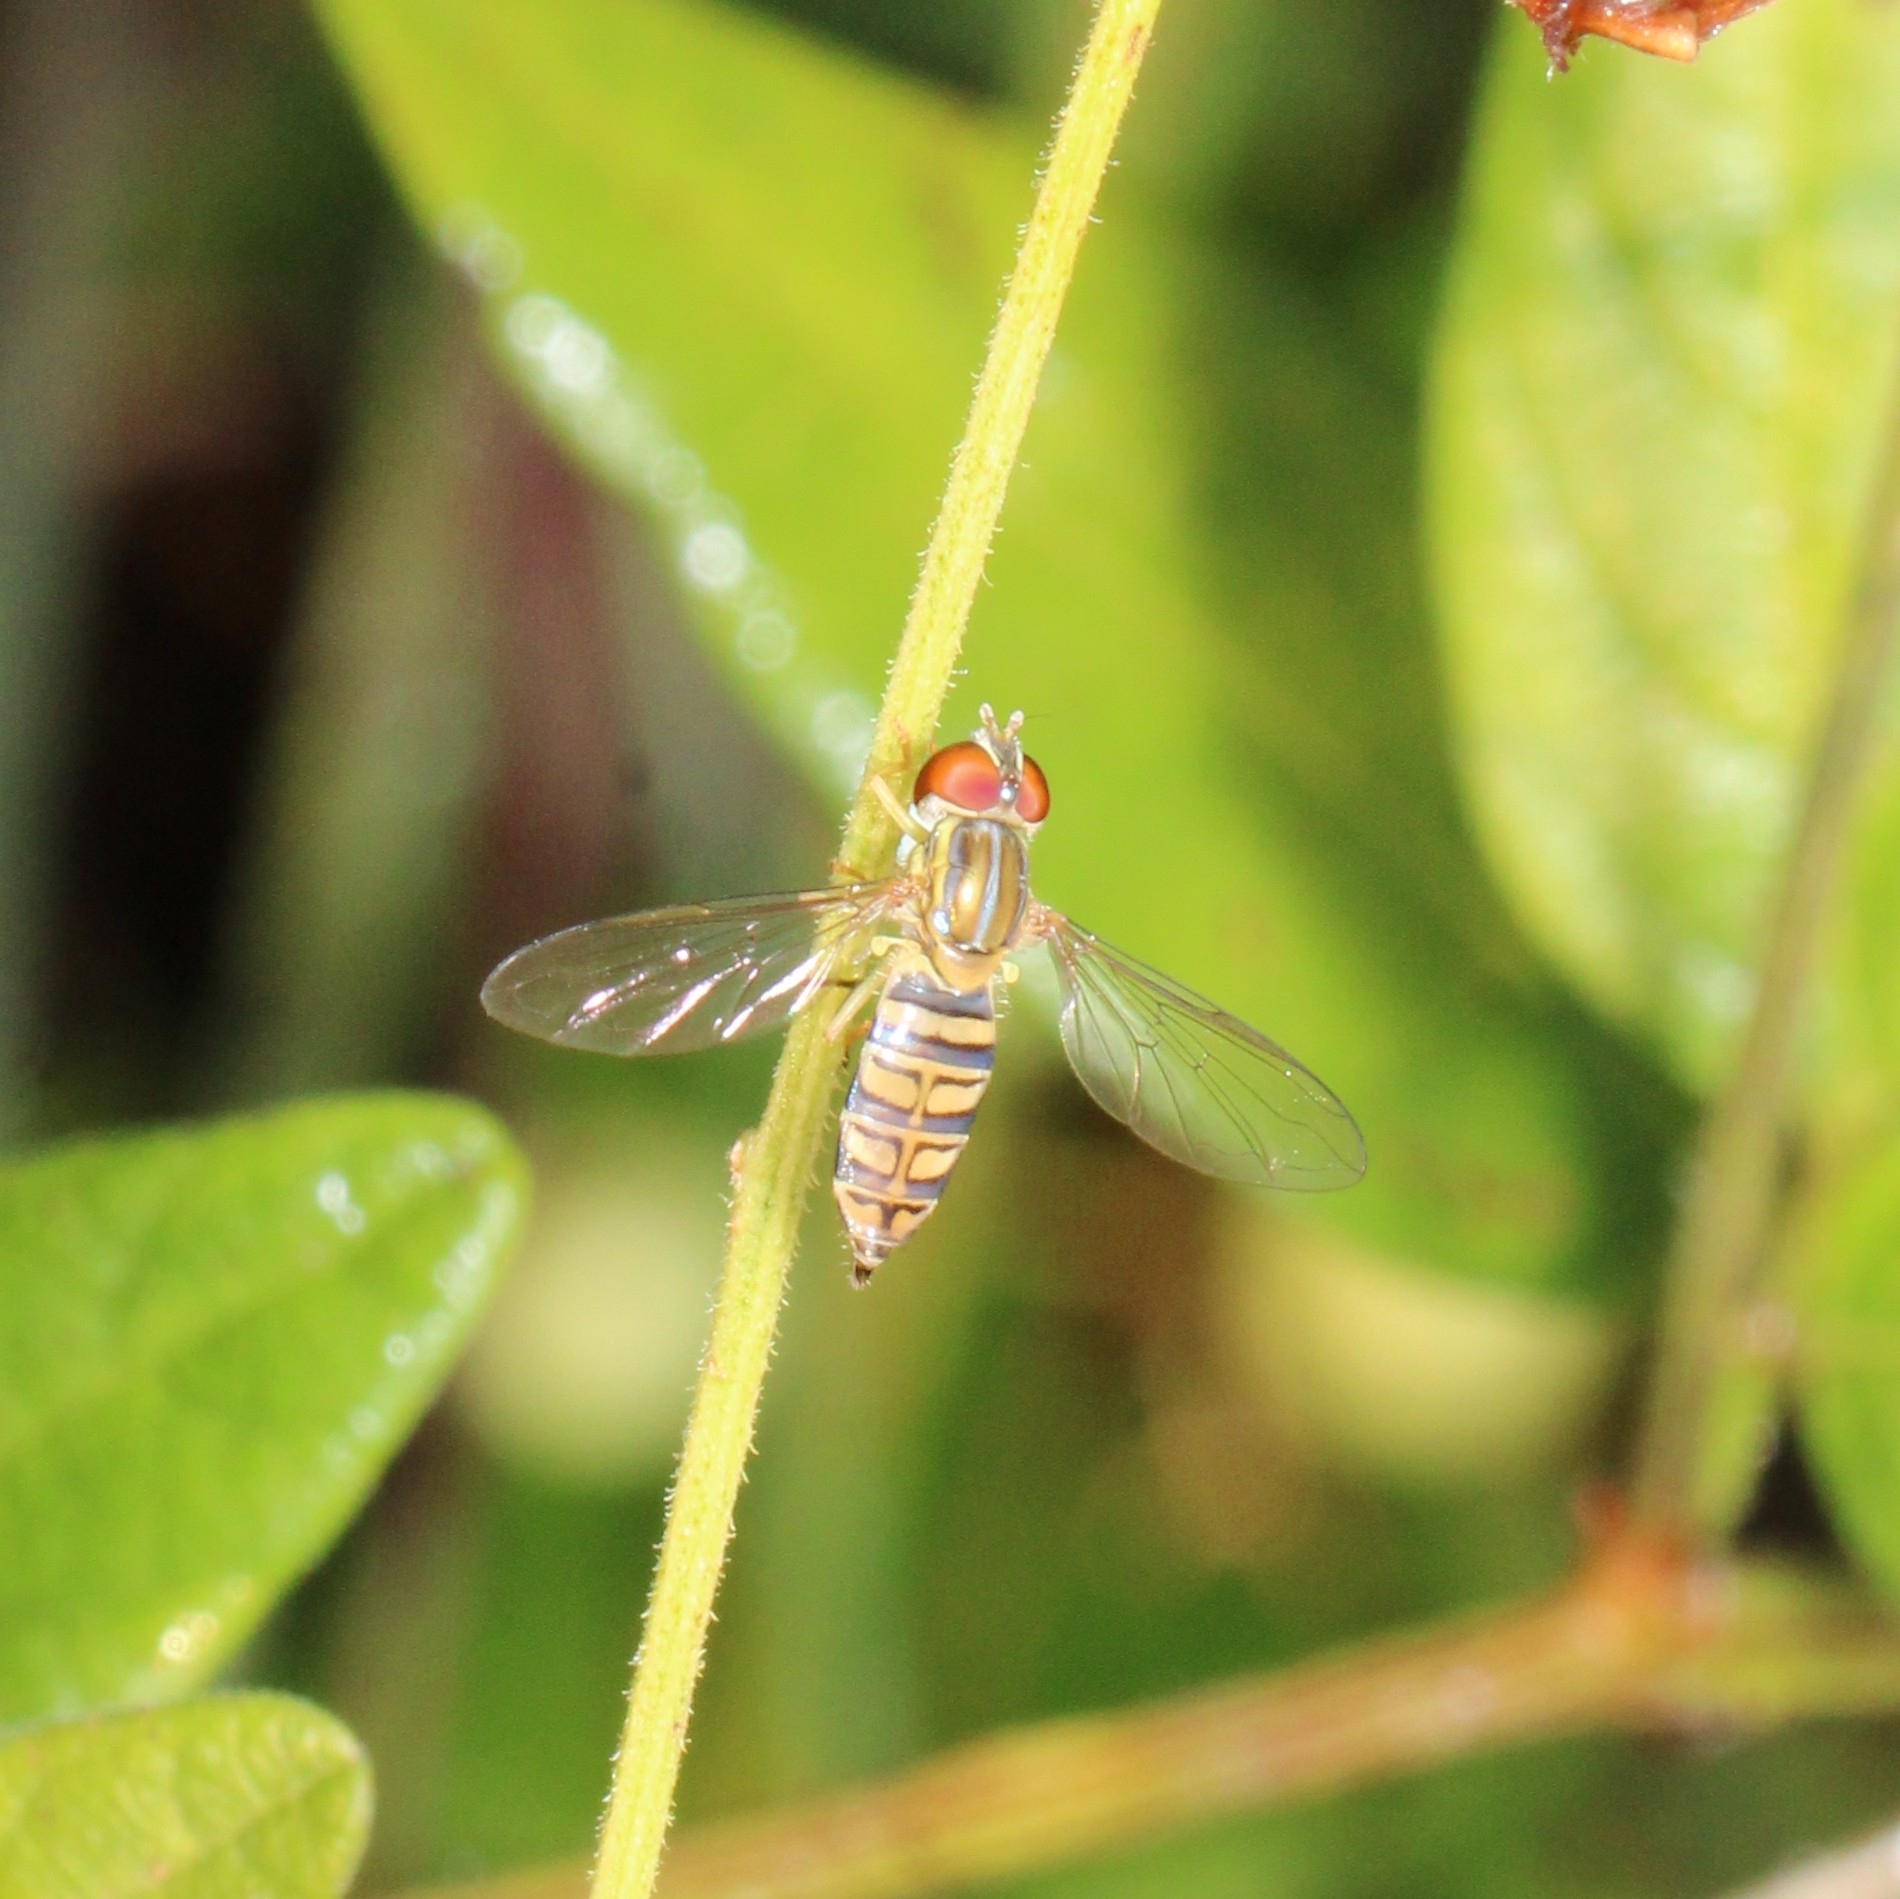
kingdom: Animalia
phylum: Arthropoda
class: Insecta
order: Diptera
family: Syrphidae
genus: Toxomerus
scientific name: Toxomerus politus
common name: Maize calligrapher
